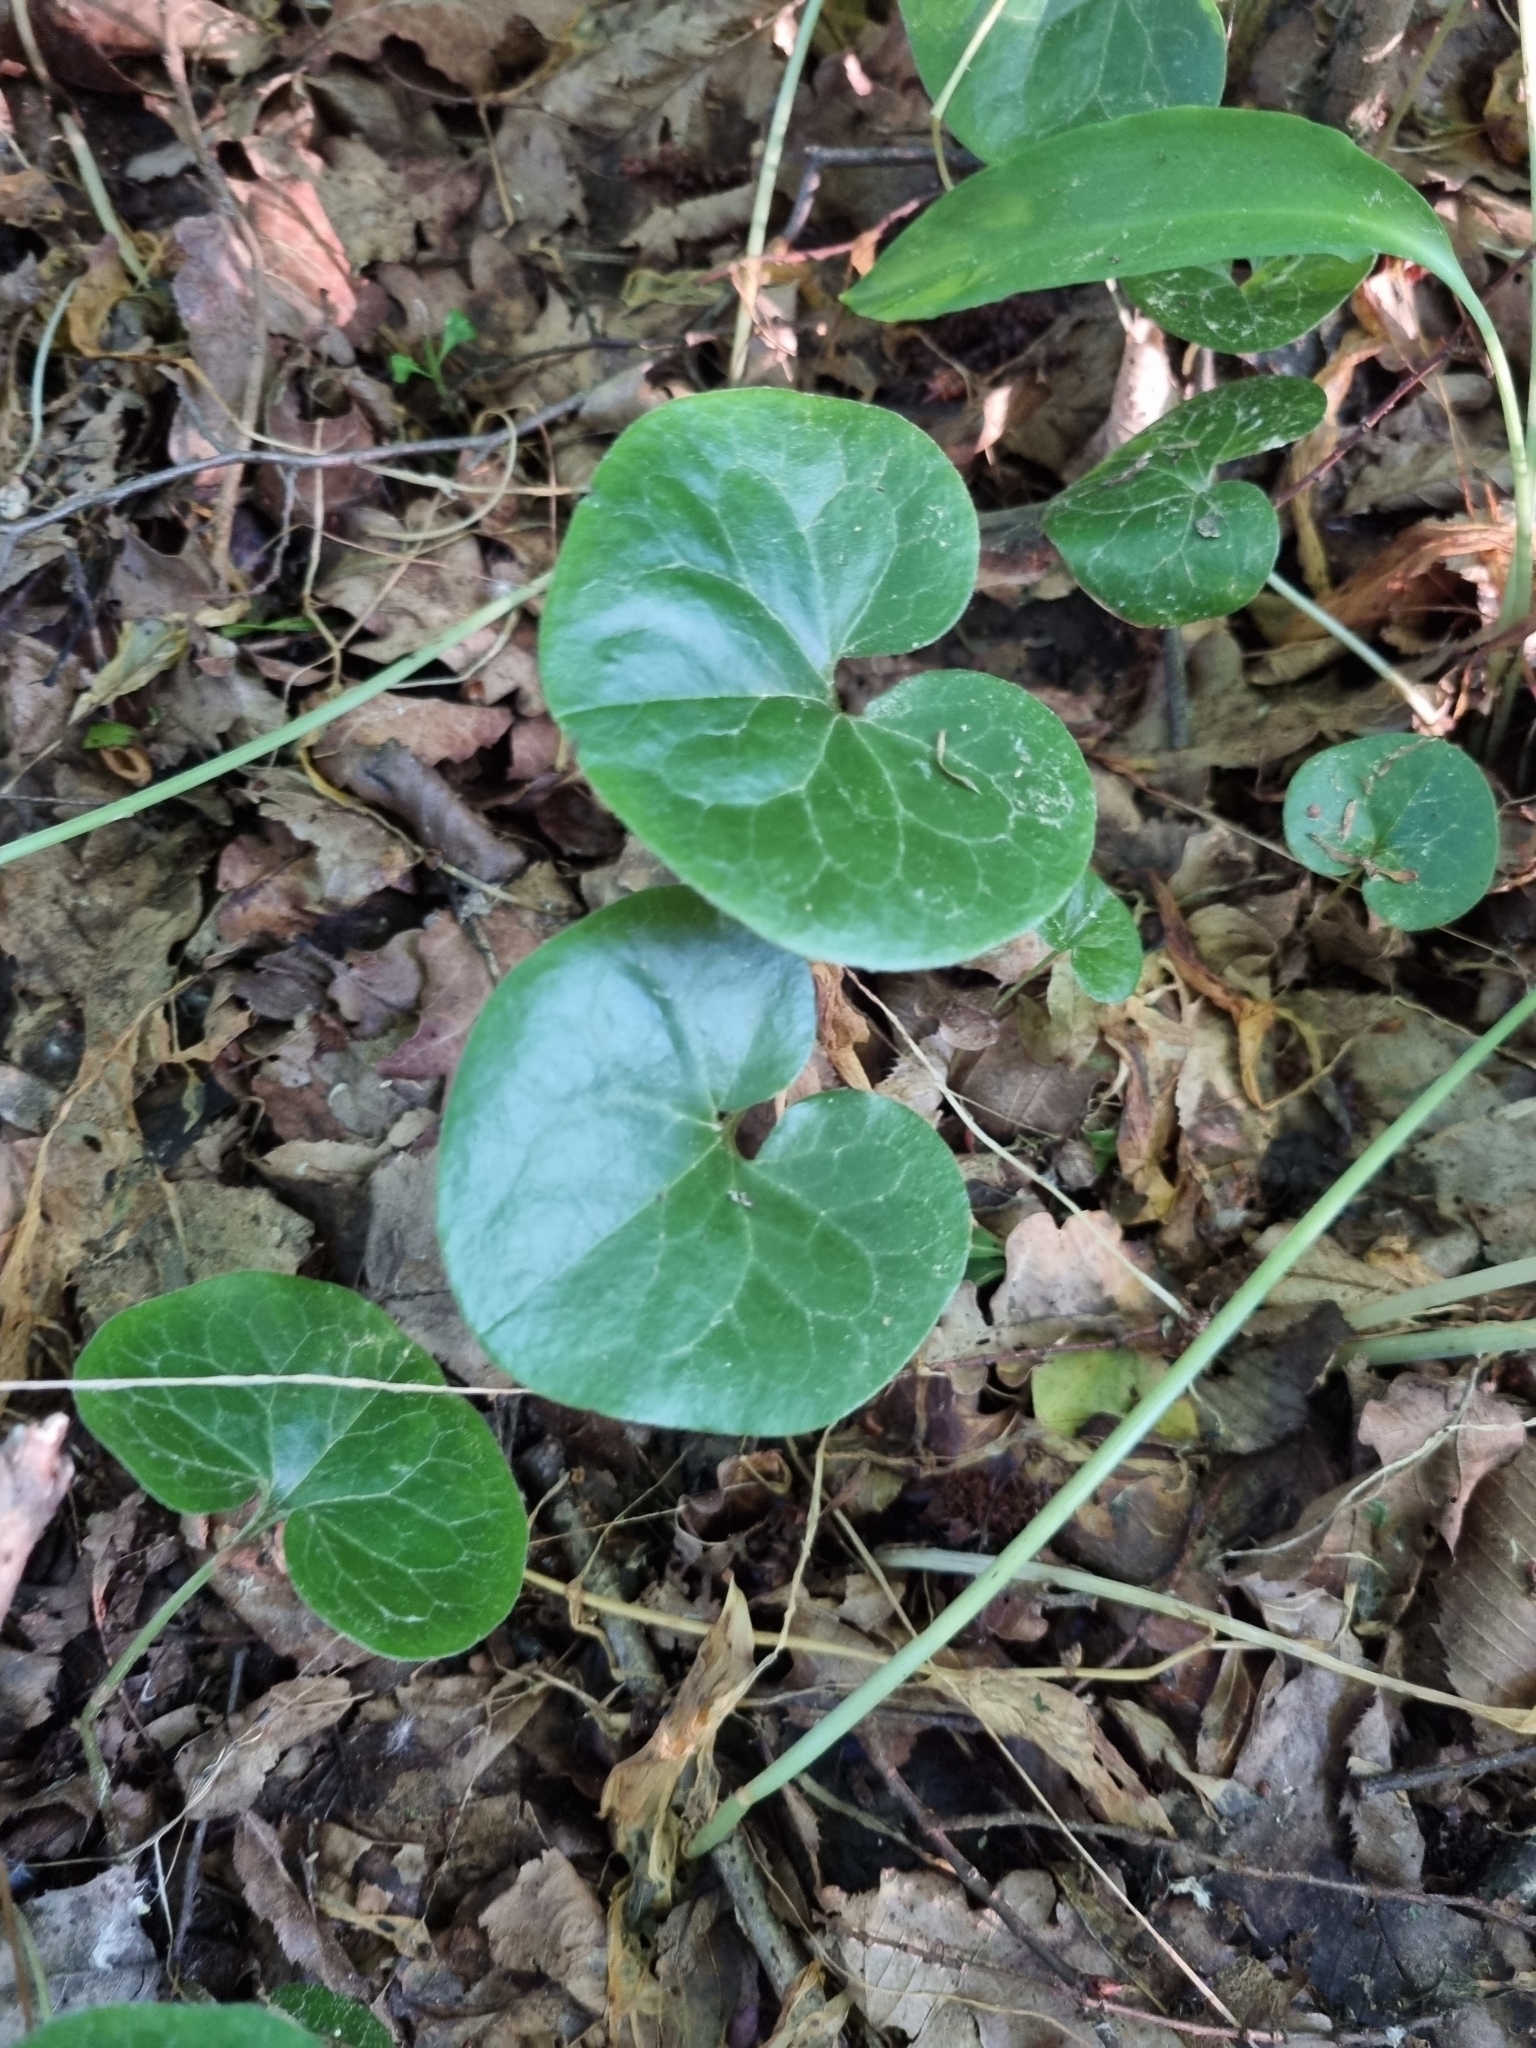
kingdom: Plantae
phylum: Tracheophyta
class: Magnoliopsida
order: Piperales
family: Aristolochiaceae
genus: Asarum
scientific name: Asarum europaeum
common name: Asarabacca
